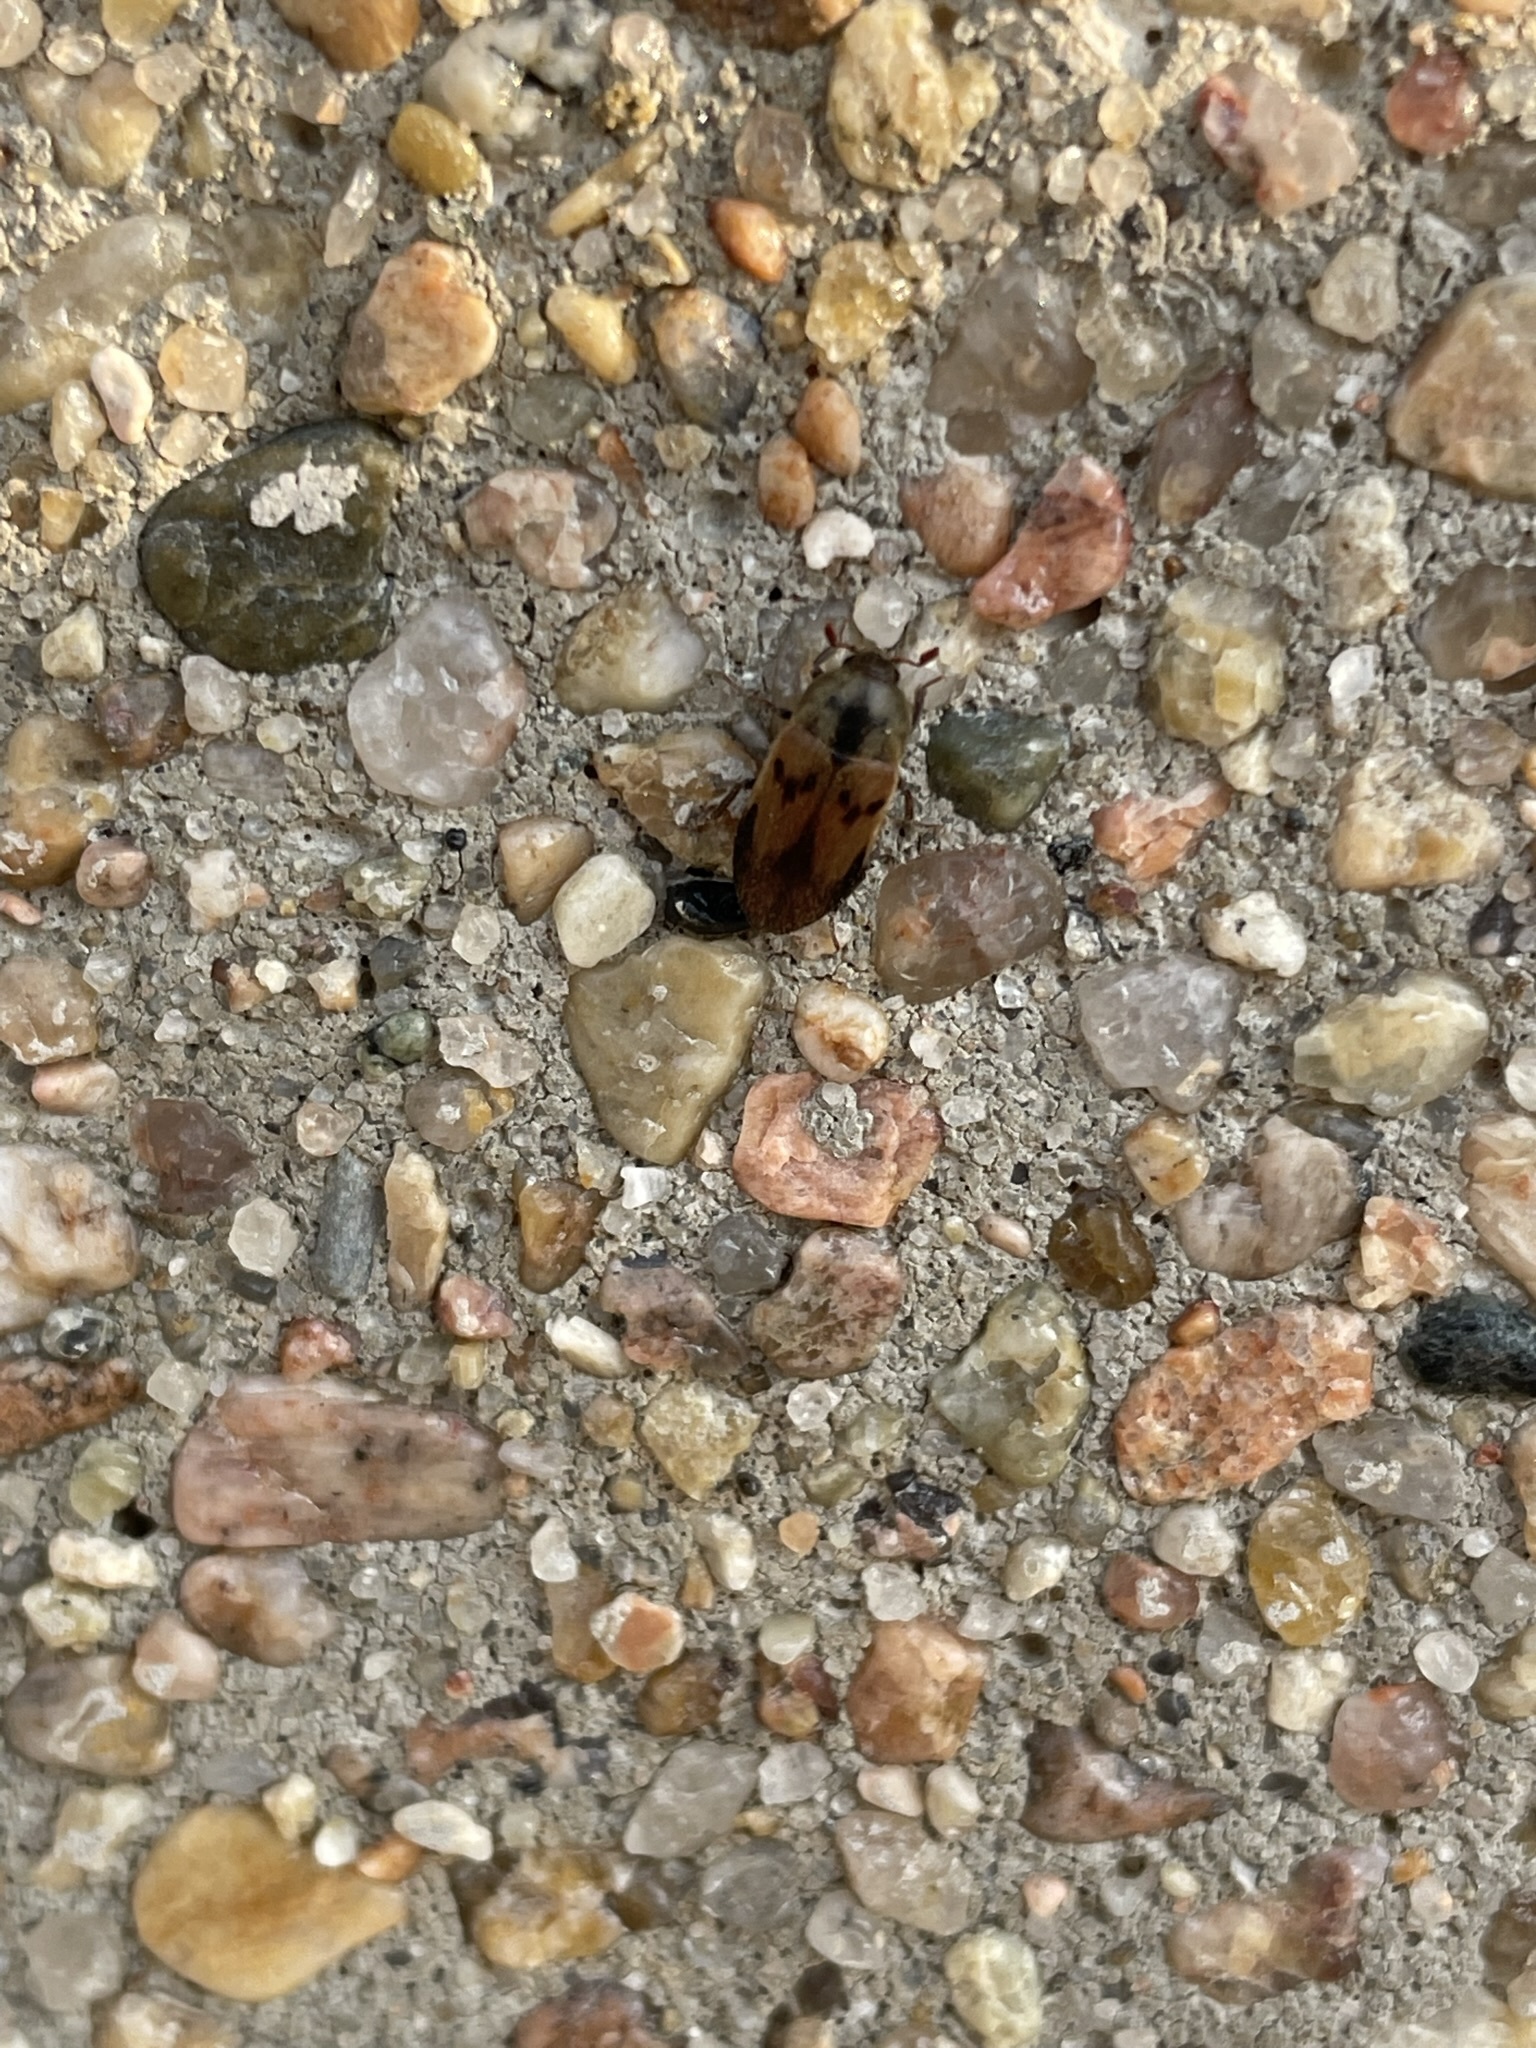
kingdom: Animalia
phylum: Arthropoda
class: Insecta
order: Coleoptera
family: Curculionidae
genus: Trypodendron
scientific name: Trypodendron signatum
